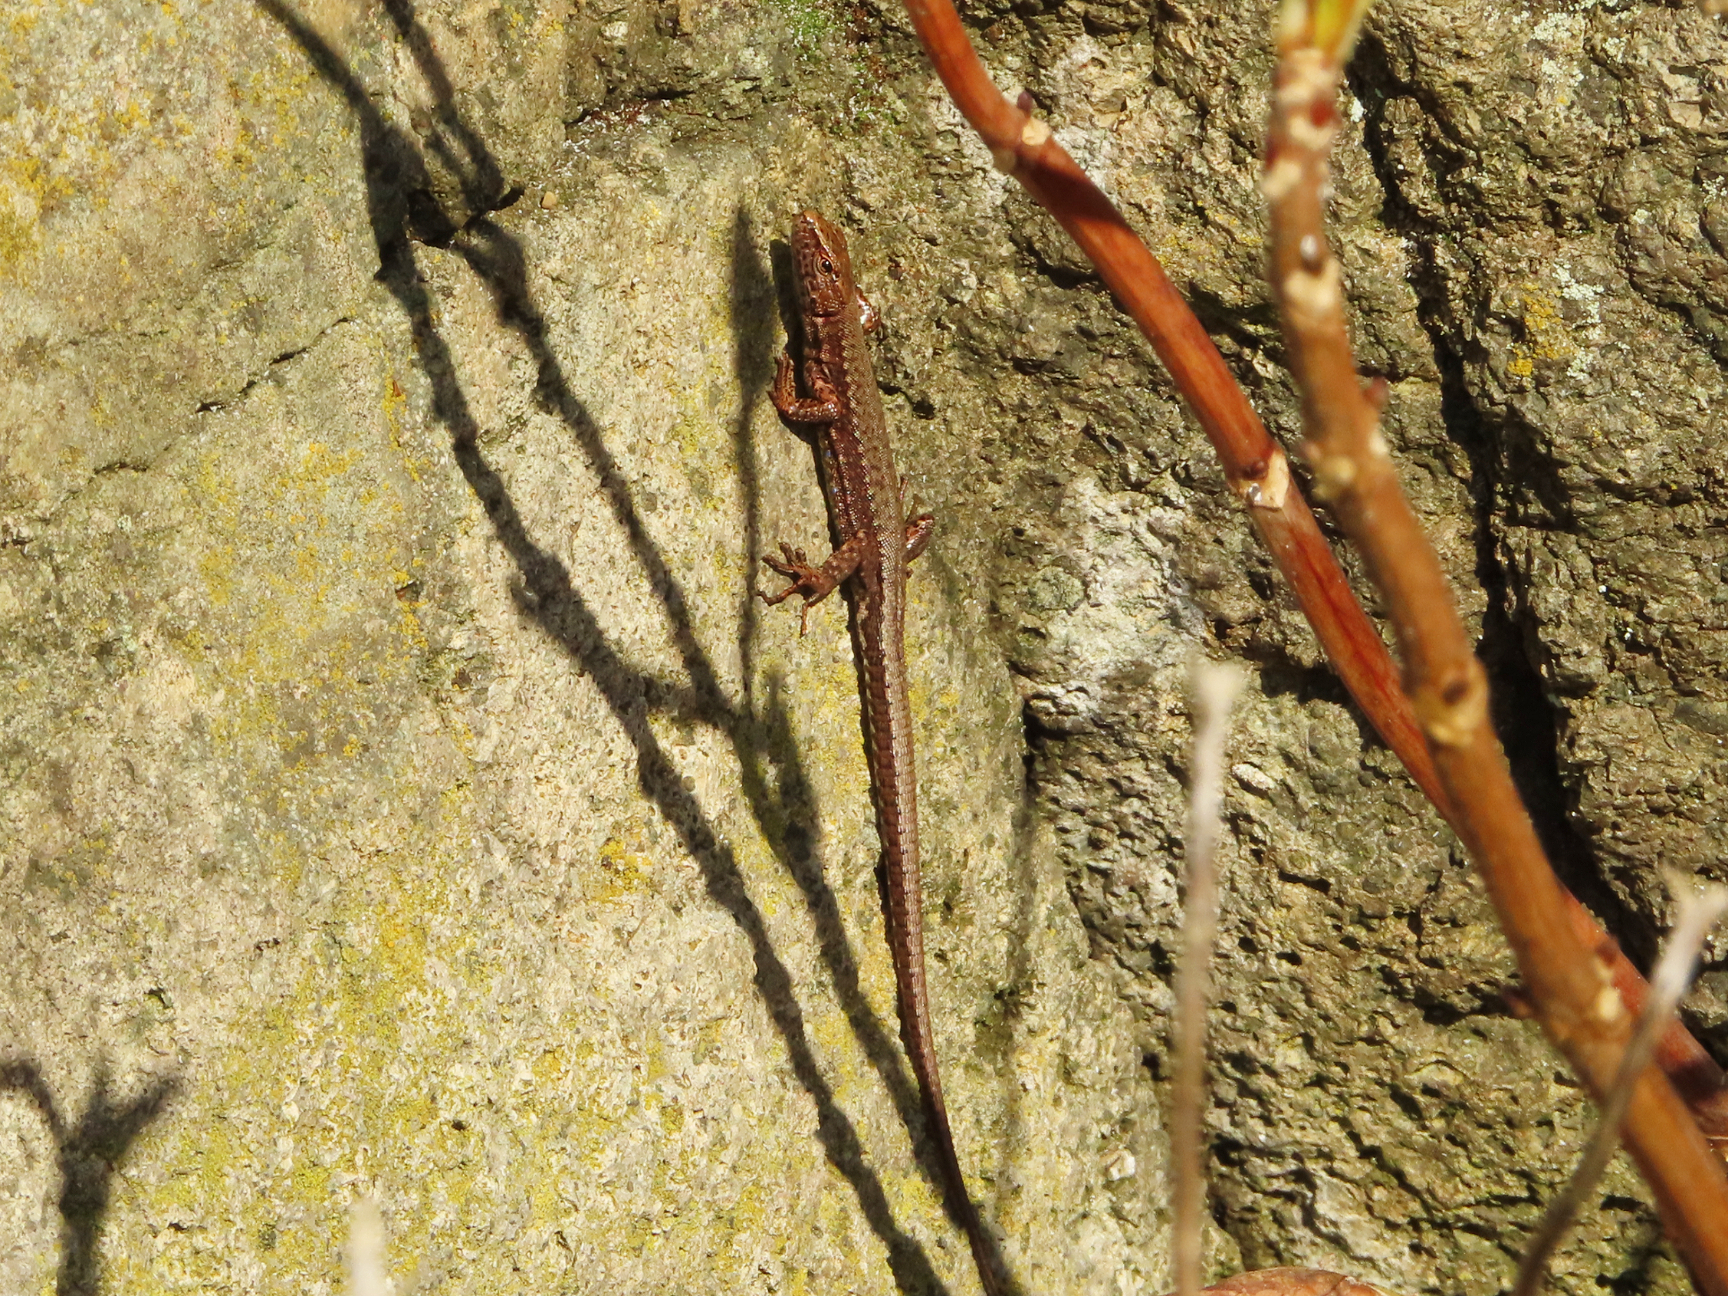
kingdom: Animalia
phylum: Chordata
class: Squamata
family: Lacertidae
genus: Darevskia
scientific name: Darevskia derjugini
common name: Derjugin's lizard
